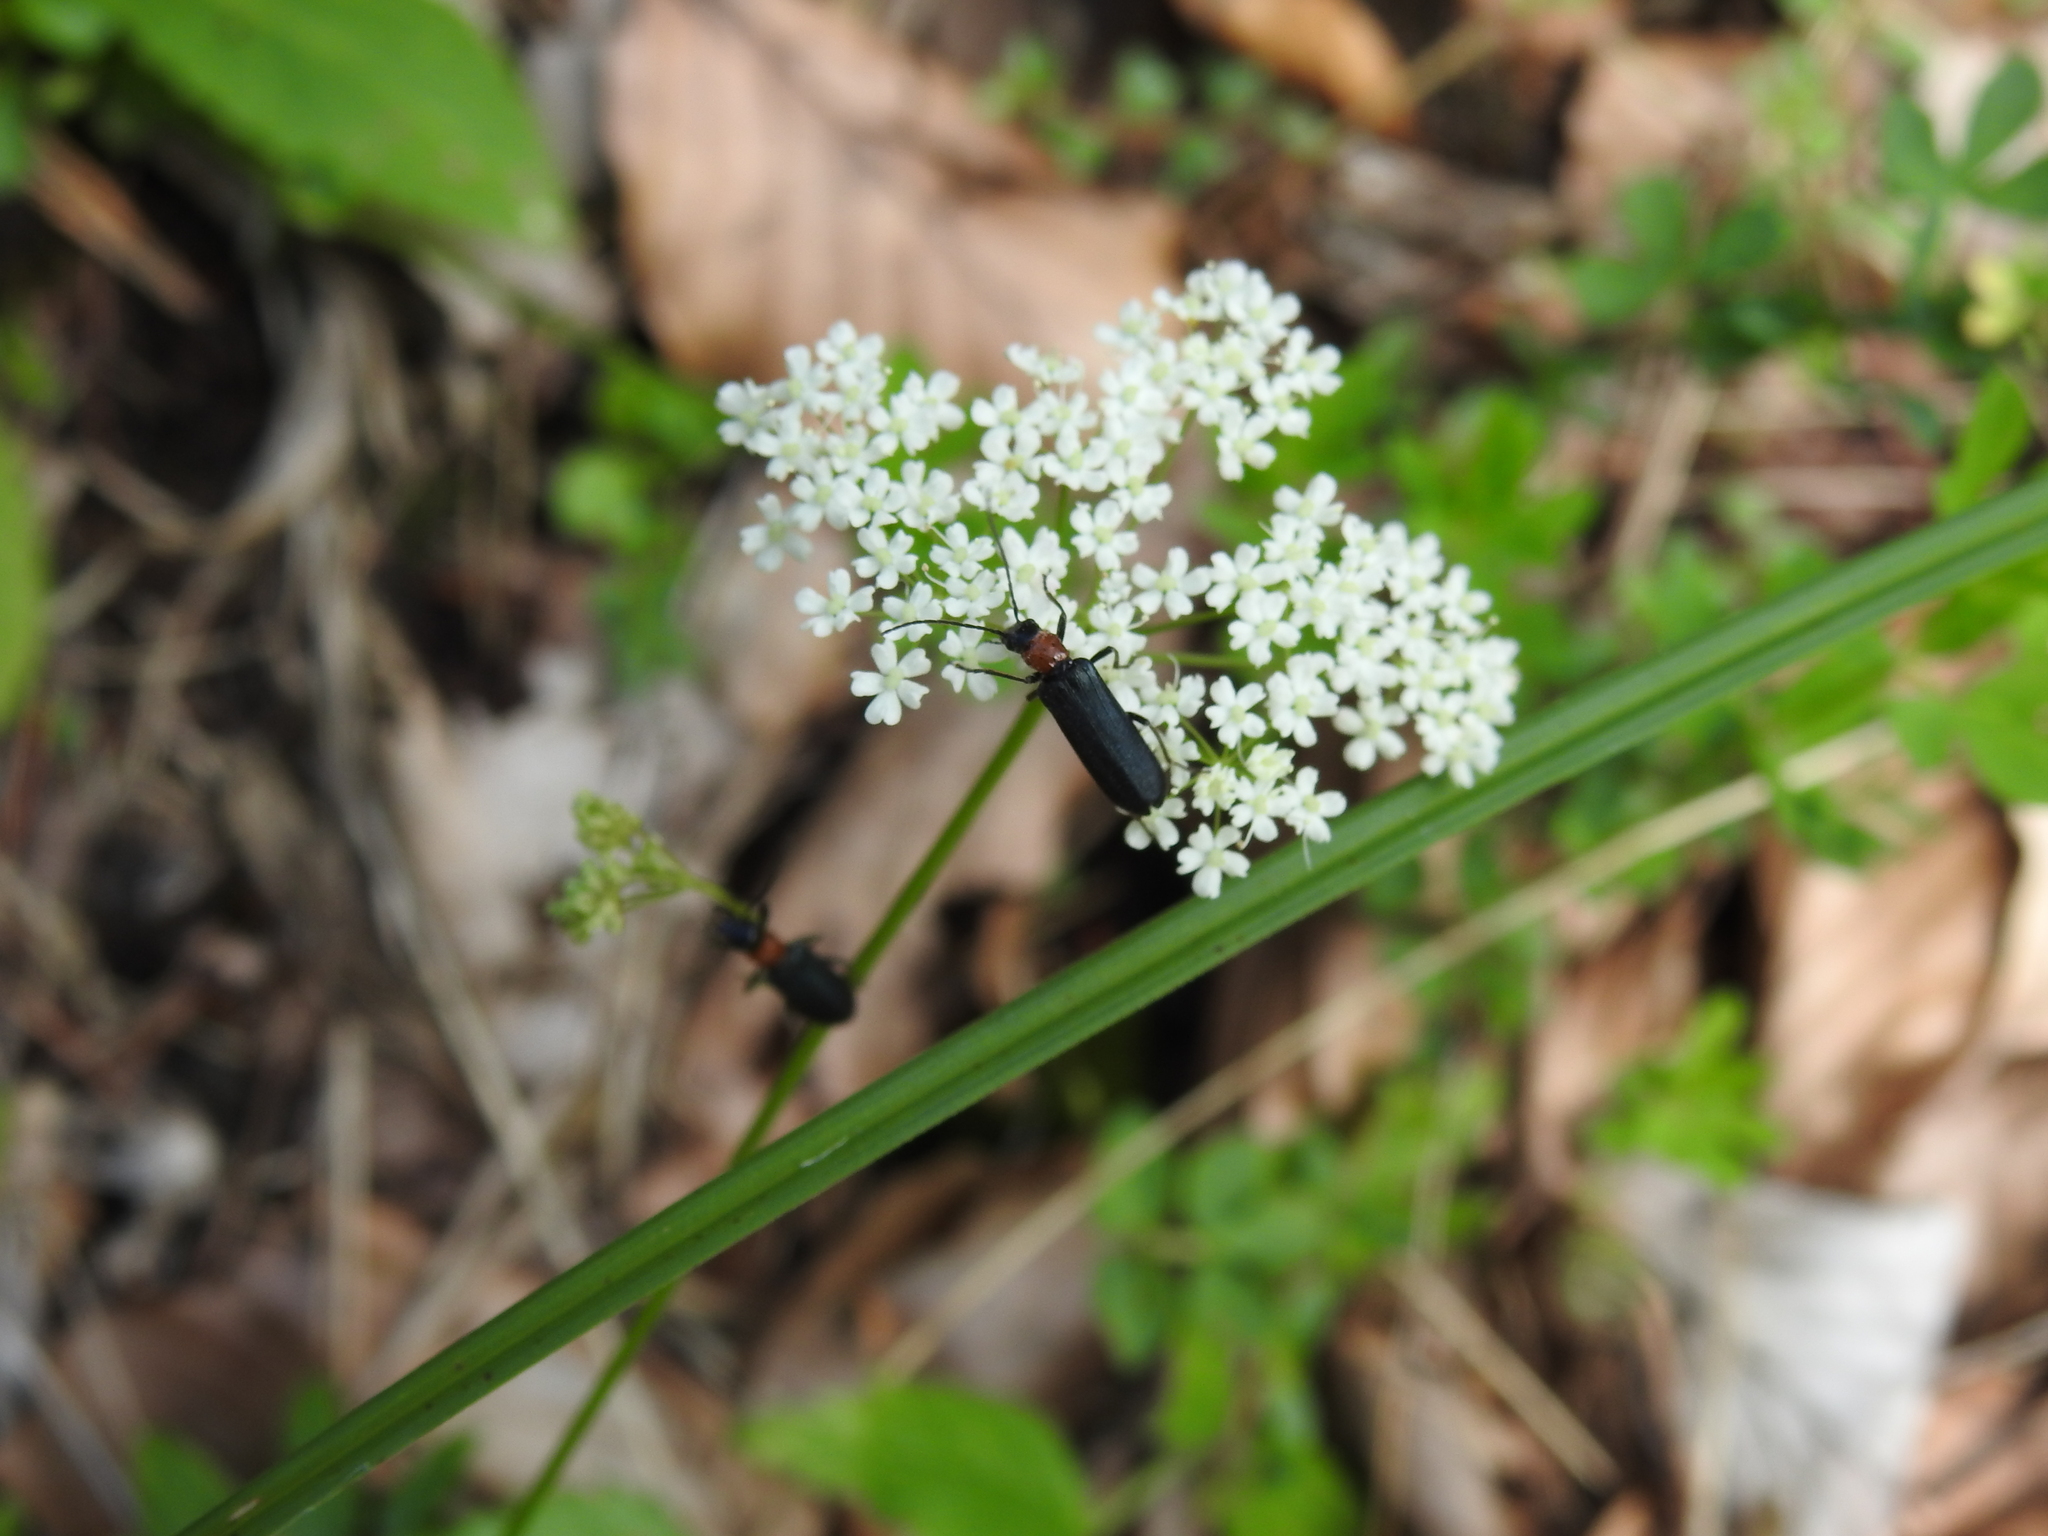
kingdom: Animalia
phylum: Arthropoda
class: Insecta
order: Coleoptera
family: Oedemeridae
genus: Anogcodes
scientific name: Anogcodes fulvicollis
